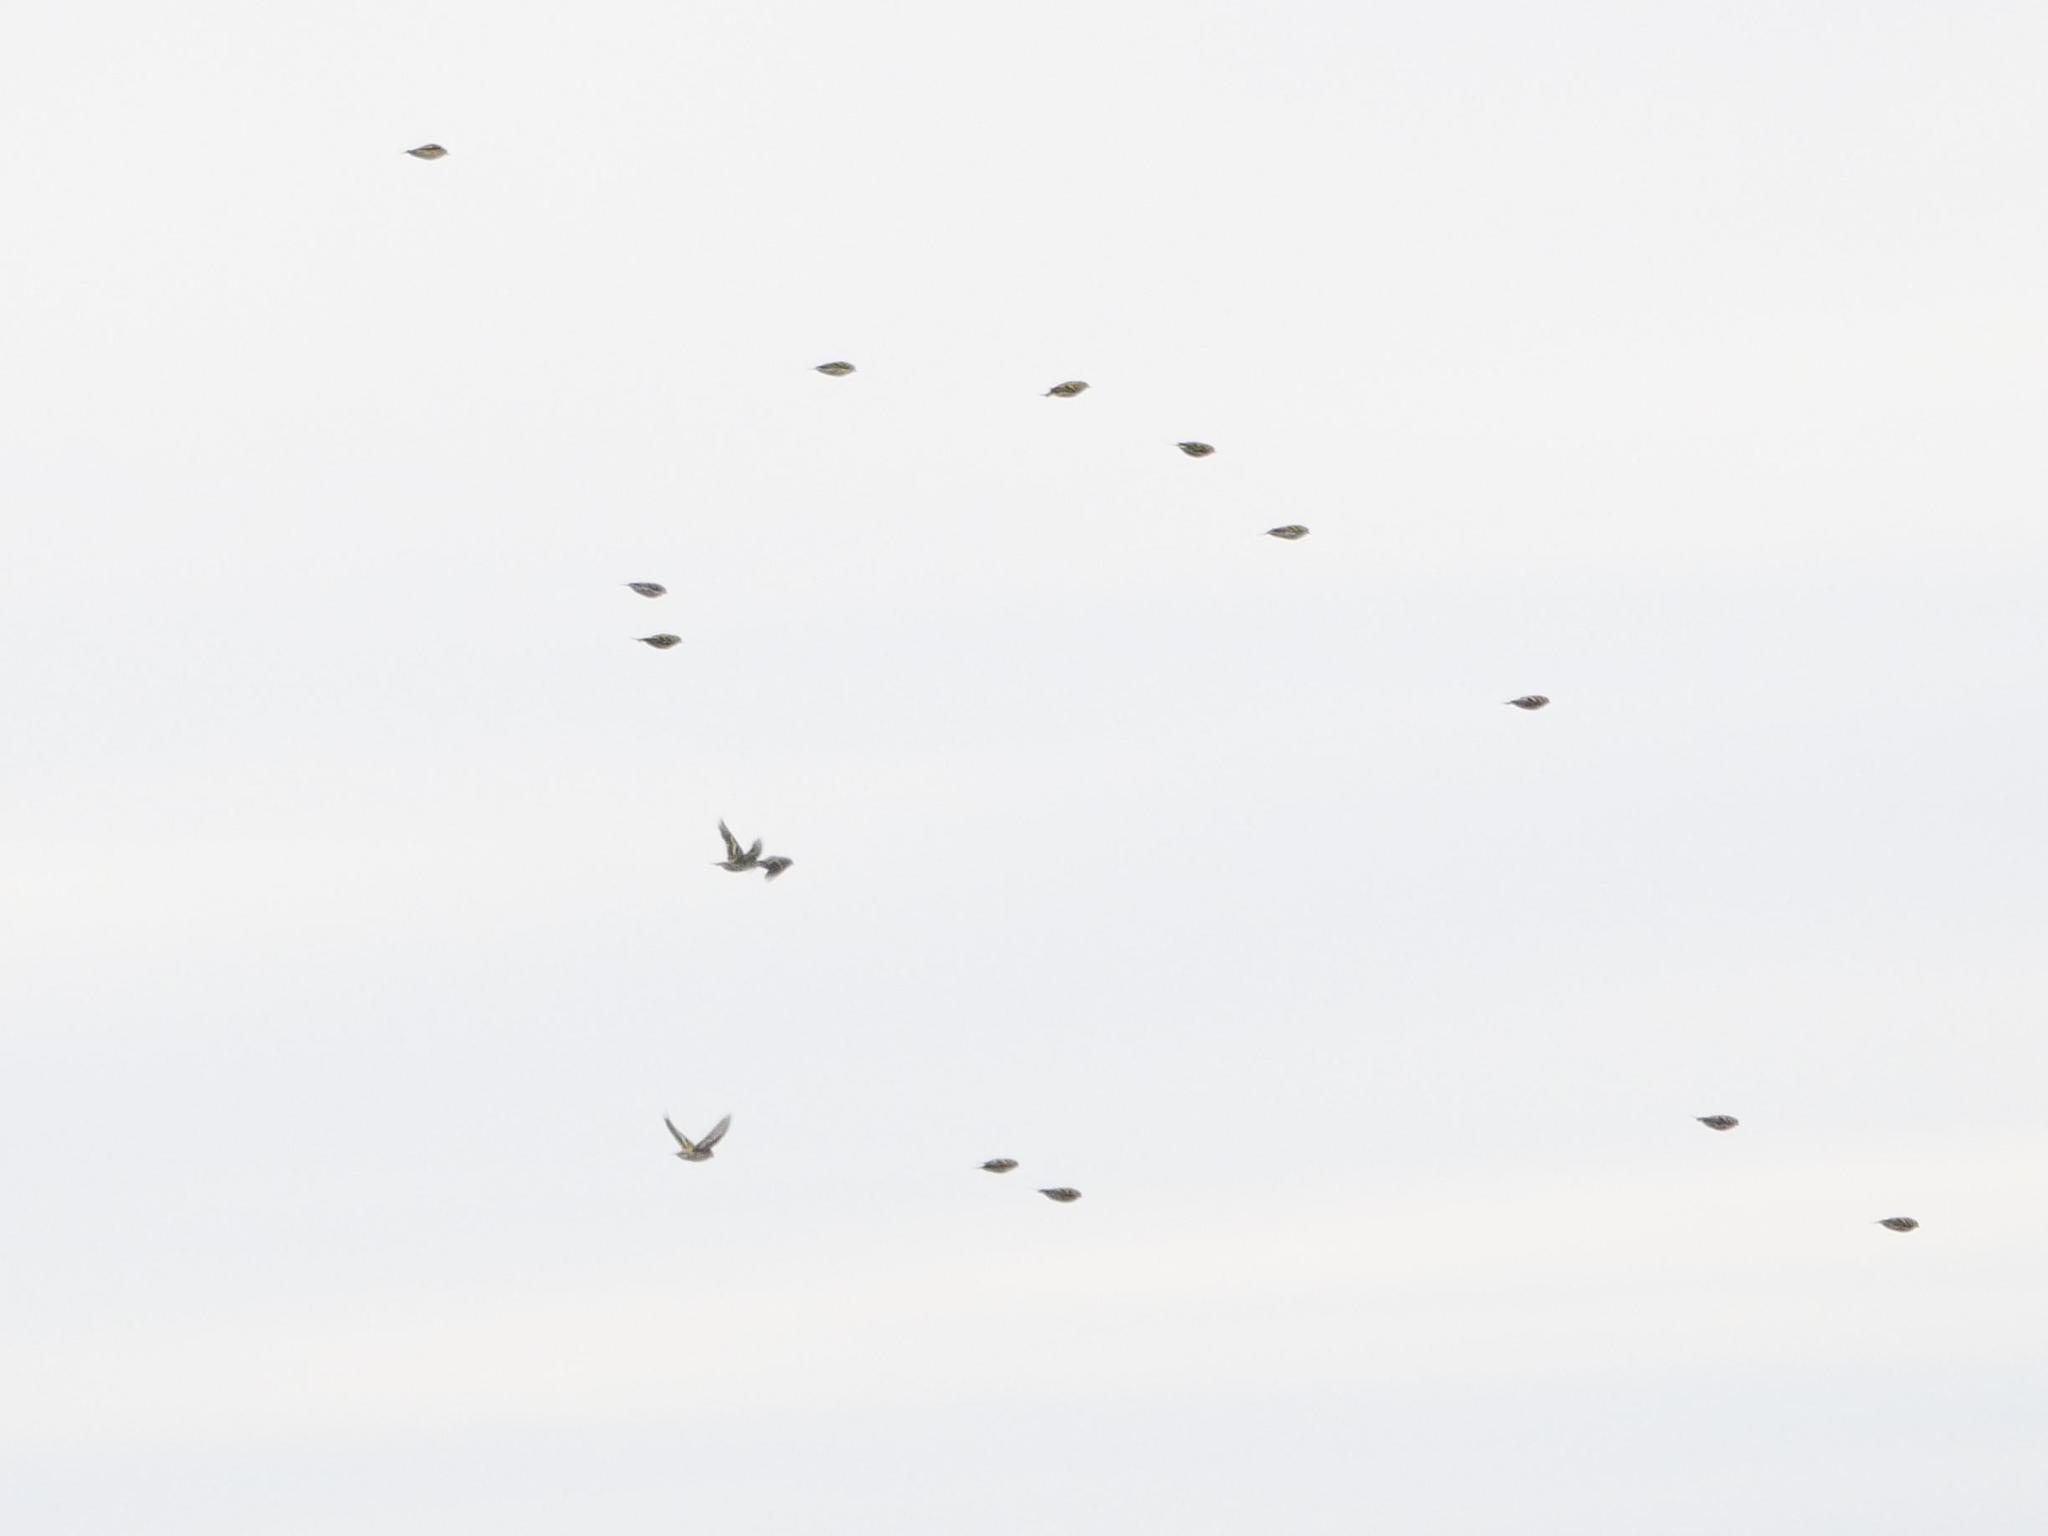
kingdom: Animalia
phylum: Chordata
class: Aves
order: Passeriformes
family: Fringillidae
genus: Spinus
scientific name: Spinus spinus
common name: Eurasian siskin
